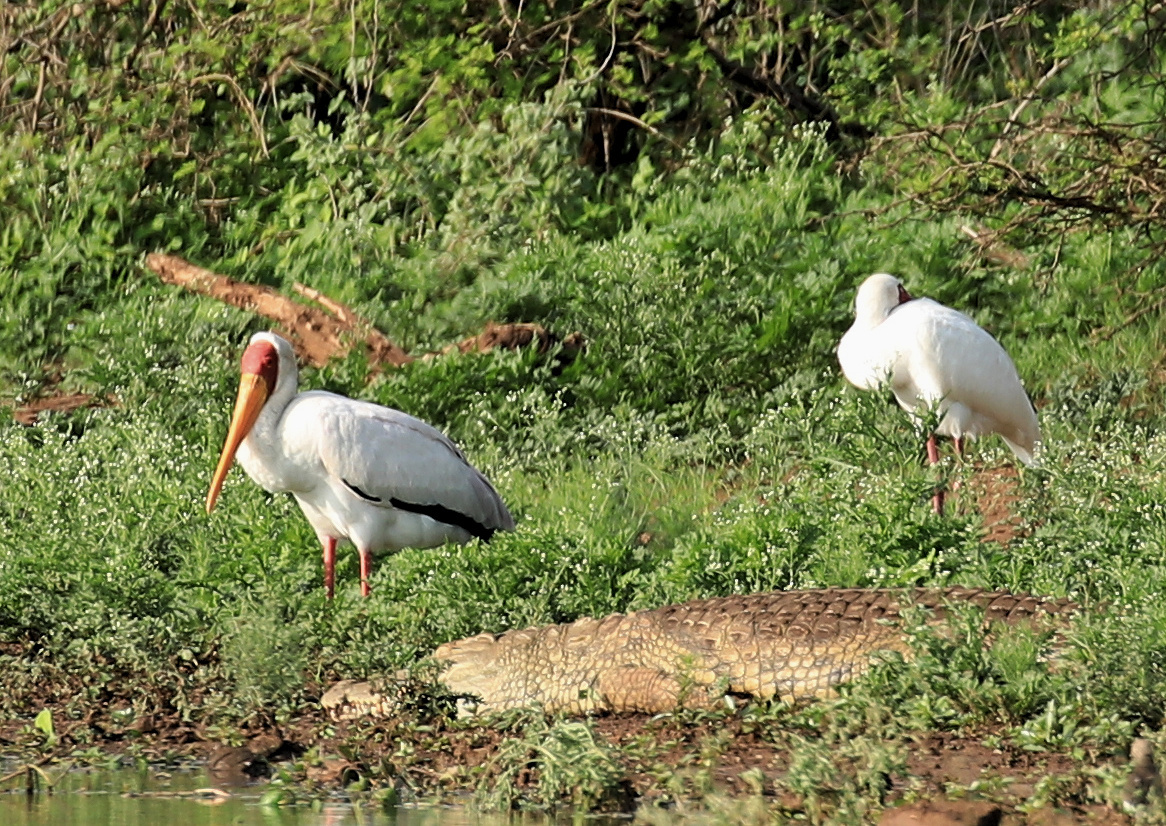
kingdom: Animalia
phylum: Chordata
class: Aves
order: Ciconiiformes
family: Ciconiidae
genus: Mycteria
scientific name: Mycteria ibis
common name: Yellow-billed stork
